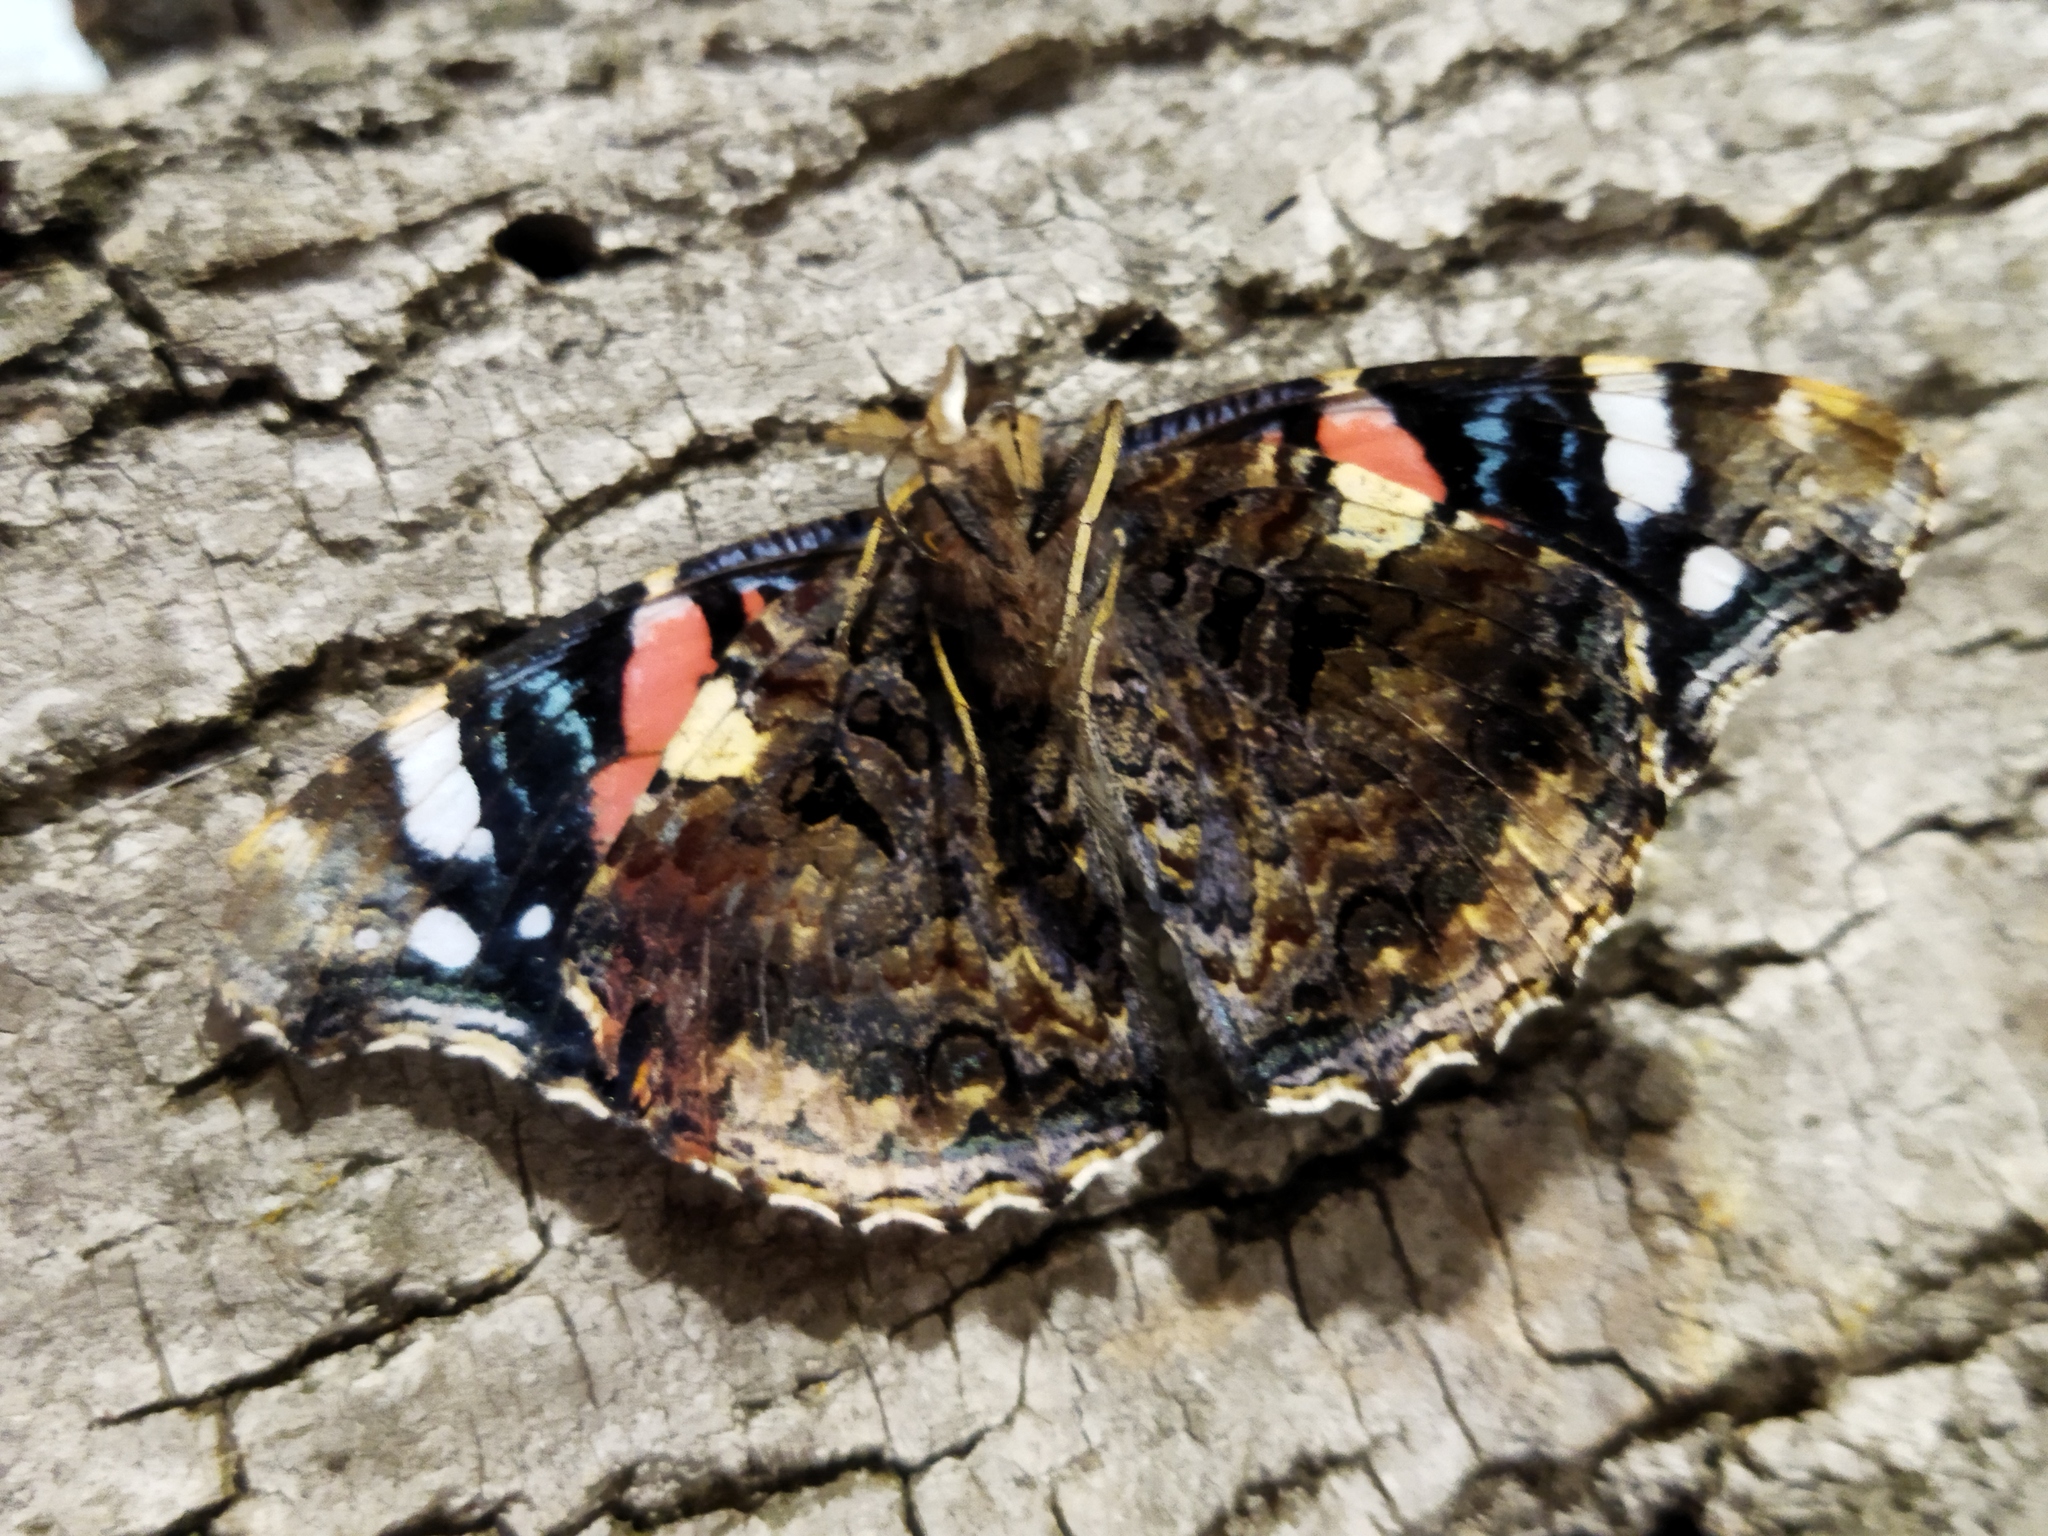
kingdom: Animalia
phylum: Arthropoda
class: Insecta
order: Lepidoptera
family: Nymphalidae
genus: Vanessa
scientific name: Vanessa atalanta
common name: Red admiral
